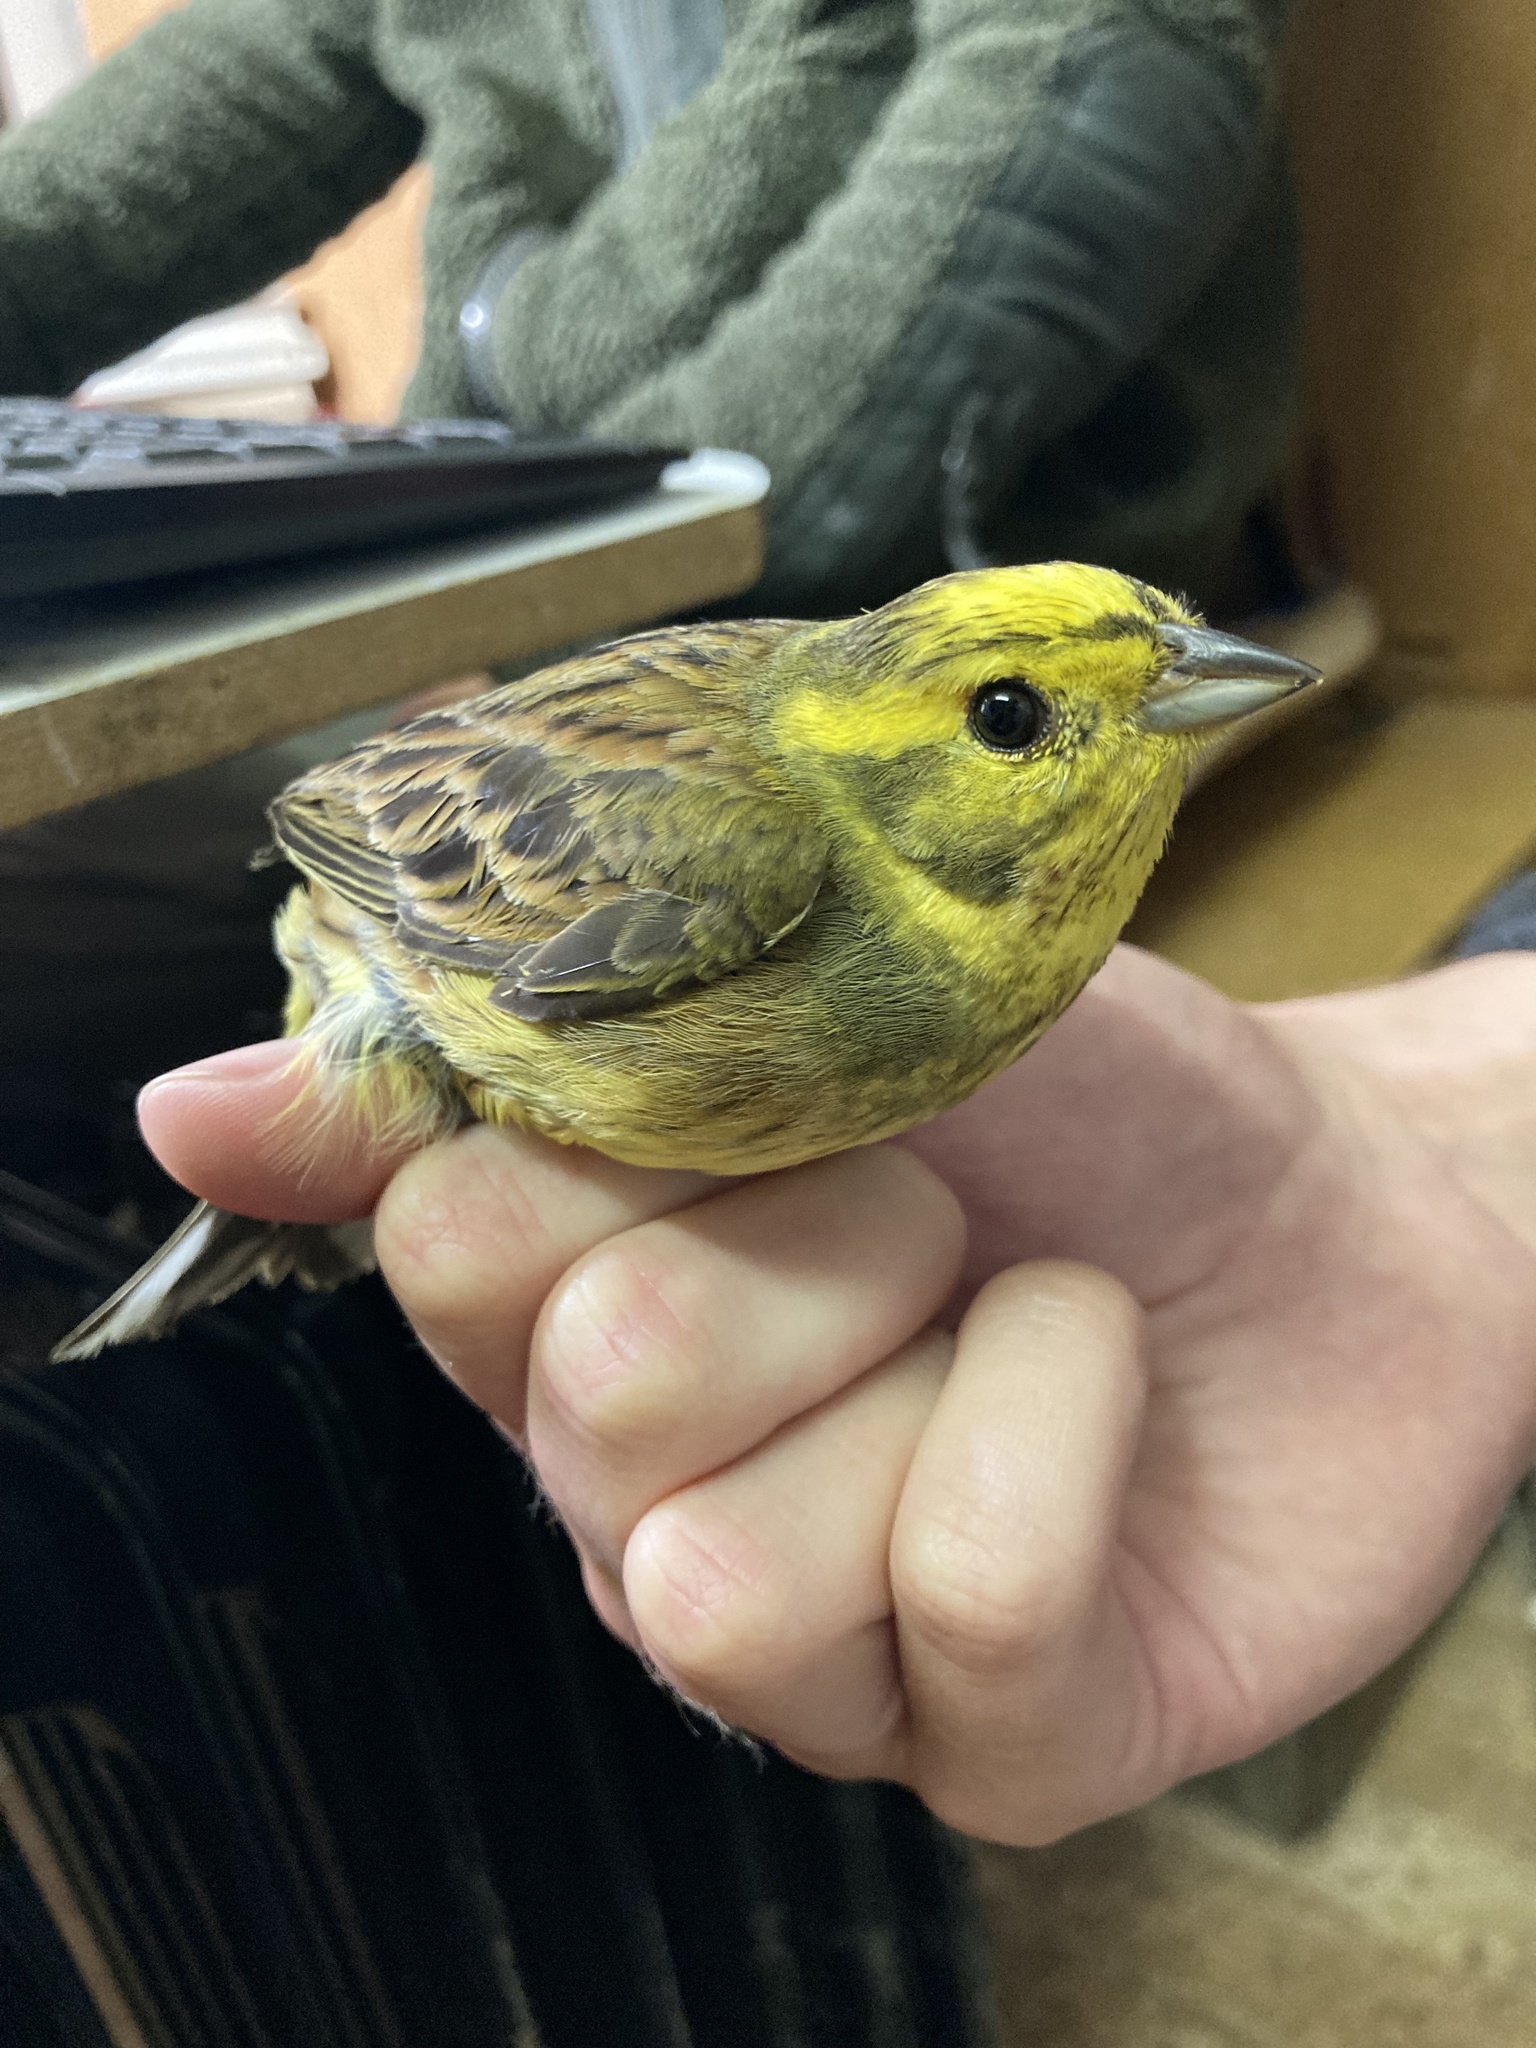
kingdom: Animalia
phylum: Chordata
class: Aves
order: Passeriformes
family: Emberizidae
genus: Emberiza
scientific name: Emberiza citrinella
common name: Yellowhammer
